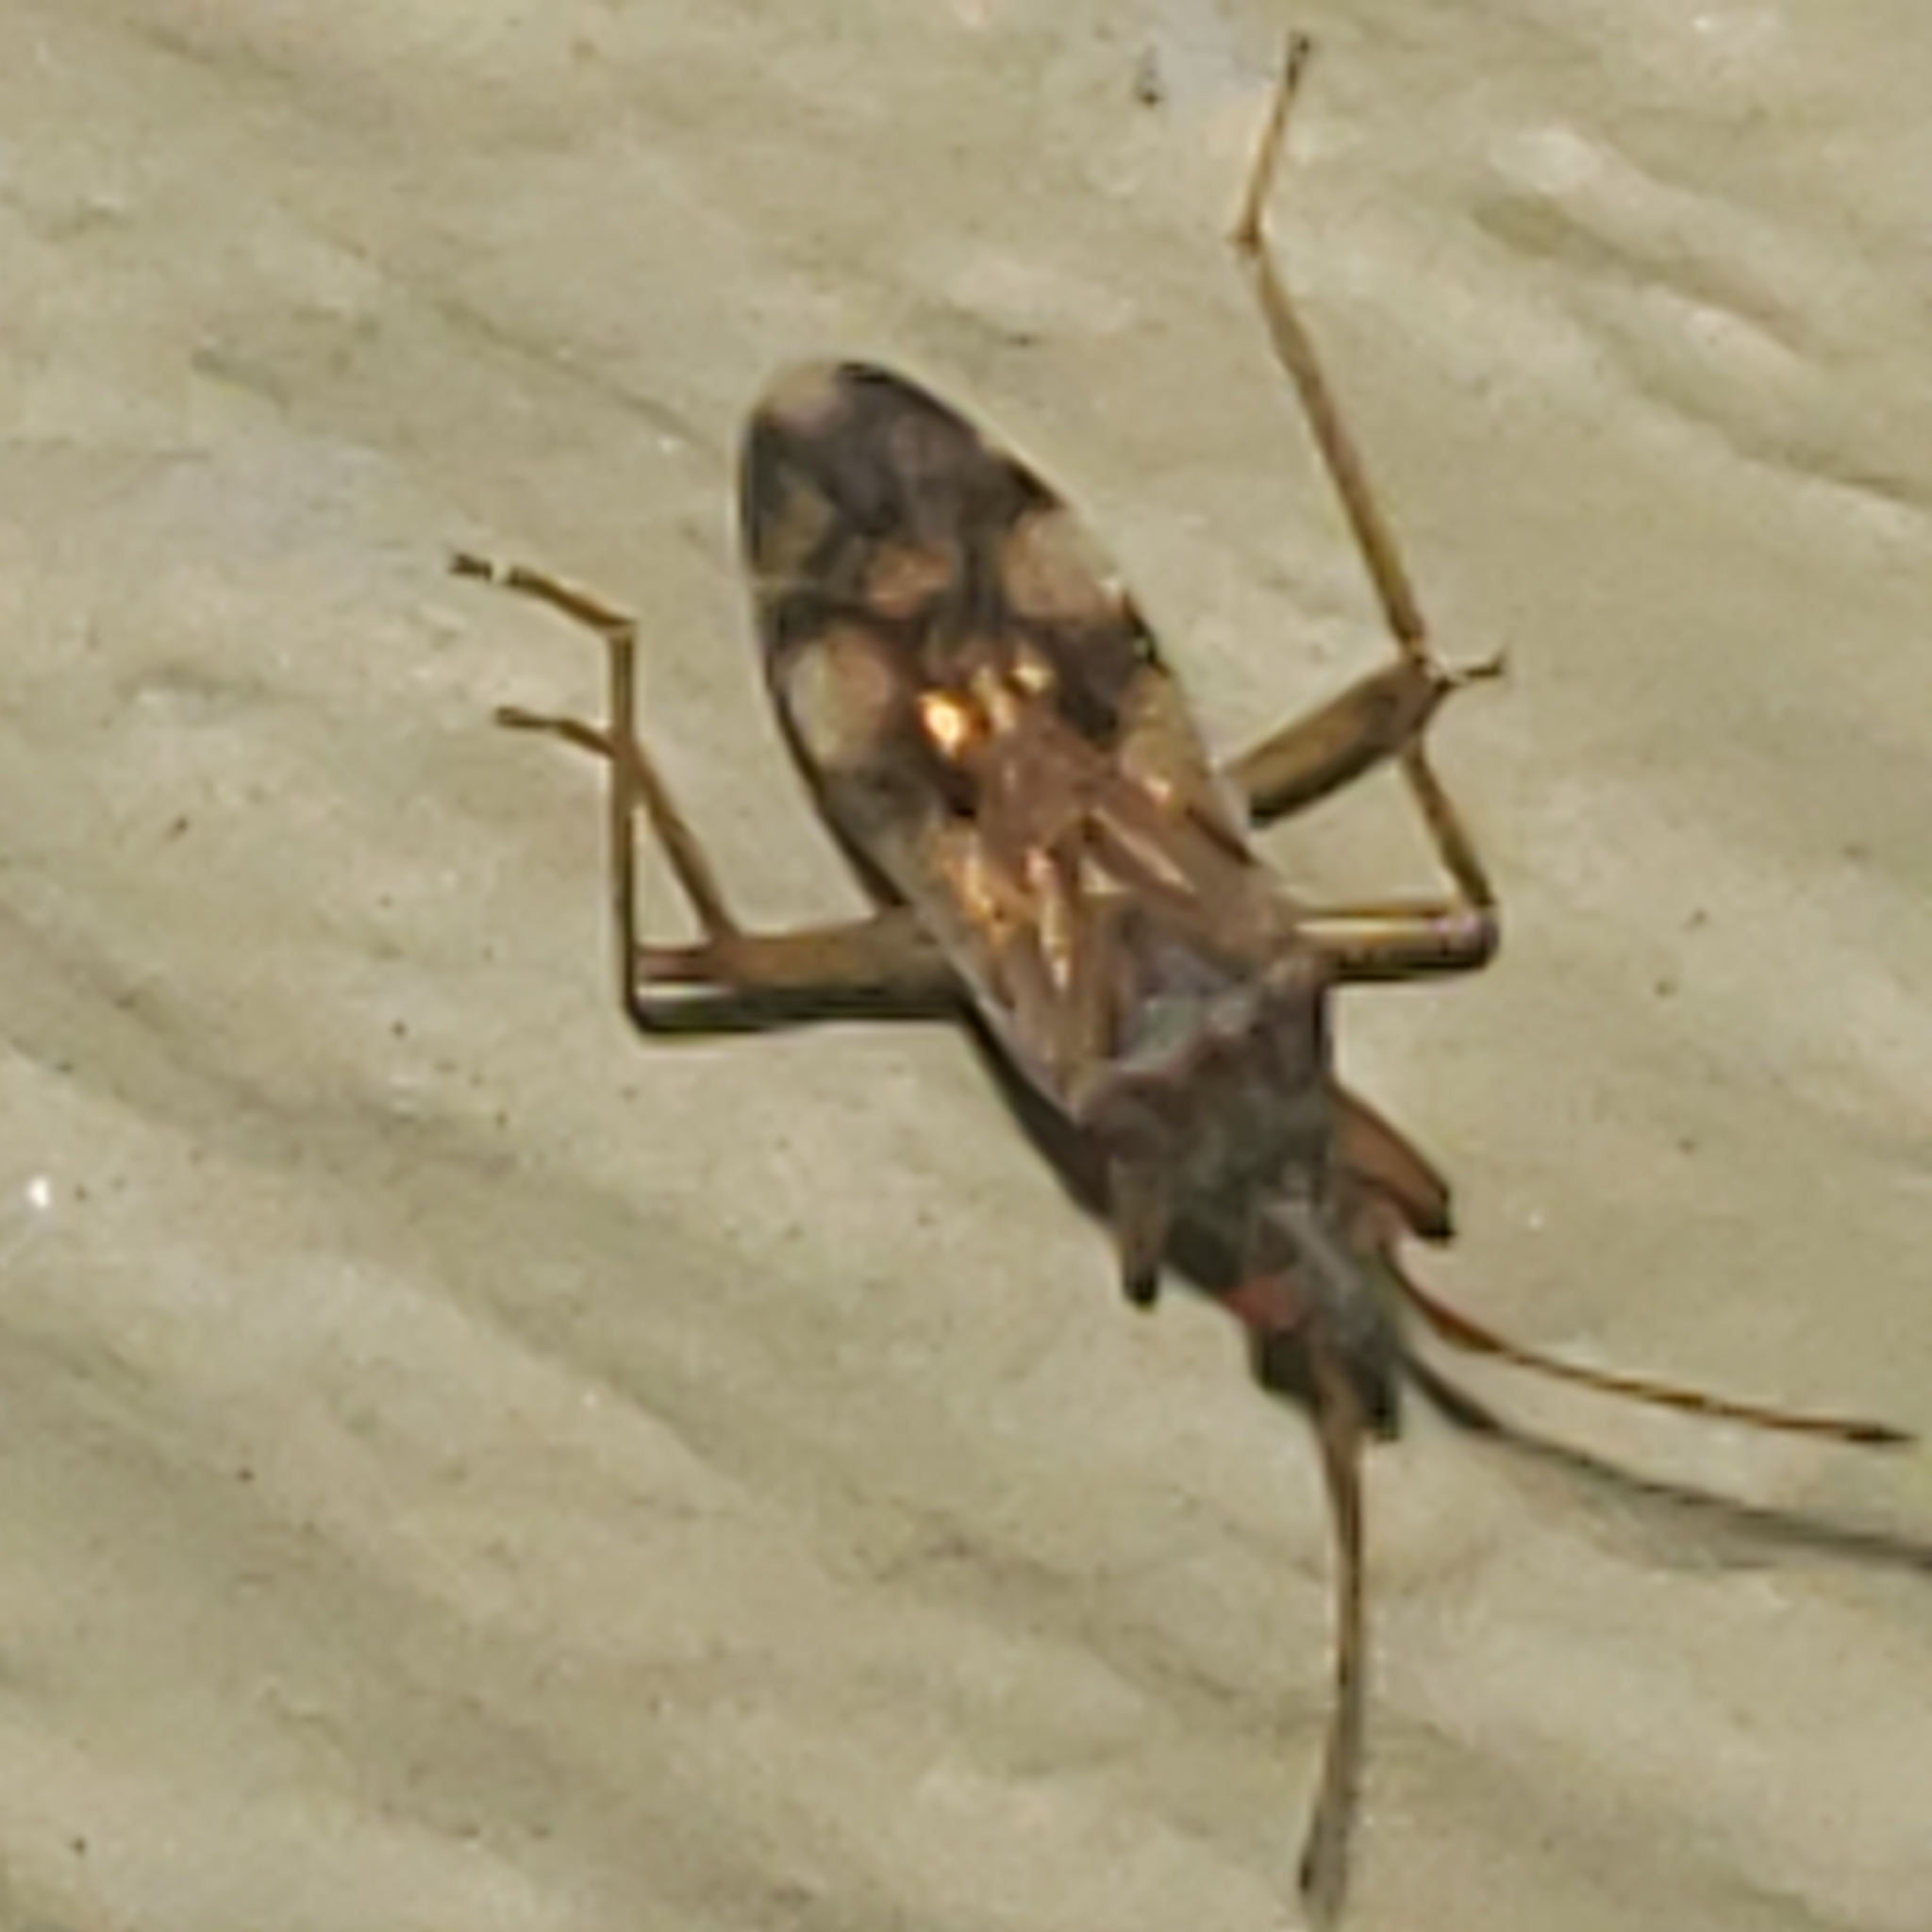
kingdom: Animalia
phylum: Arthropoda
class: Insecta
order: Hemiptera
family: Rhyparochromidae
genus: Ozophora
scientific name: Ozophora picturata
